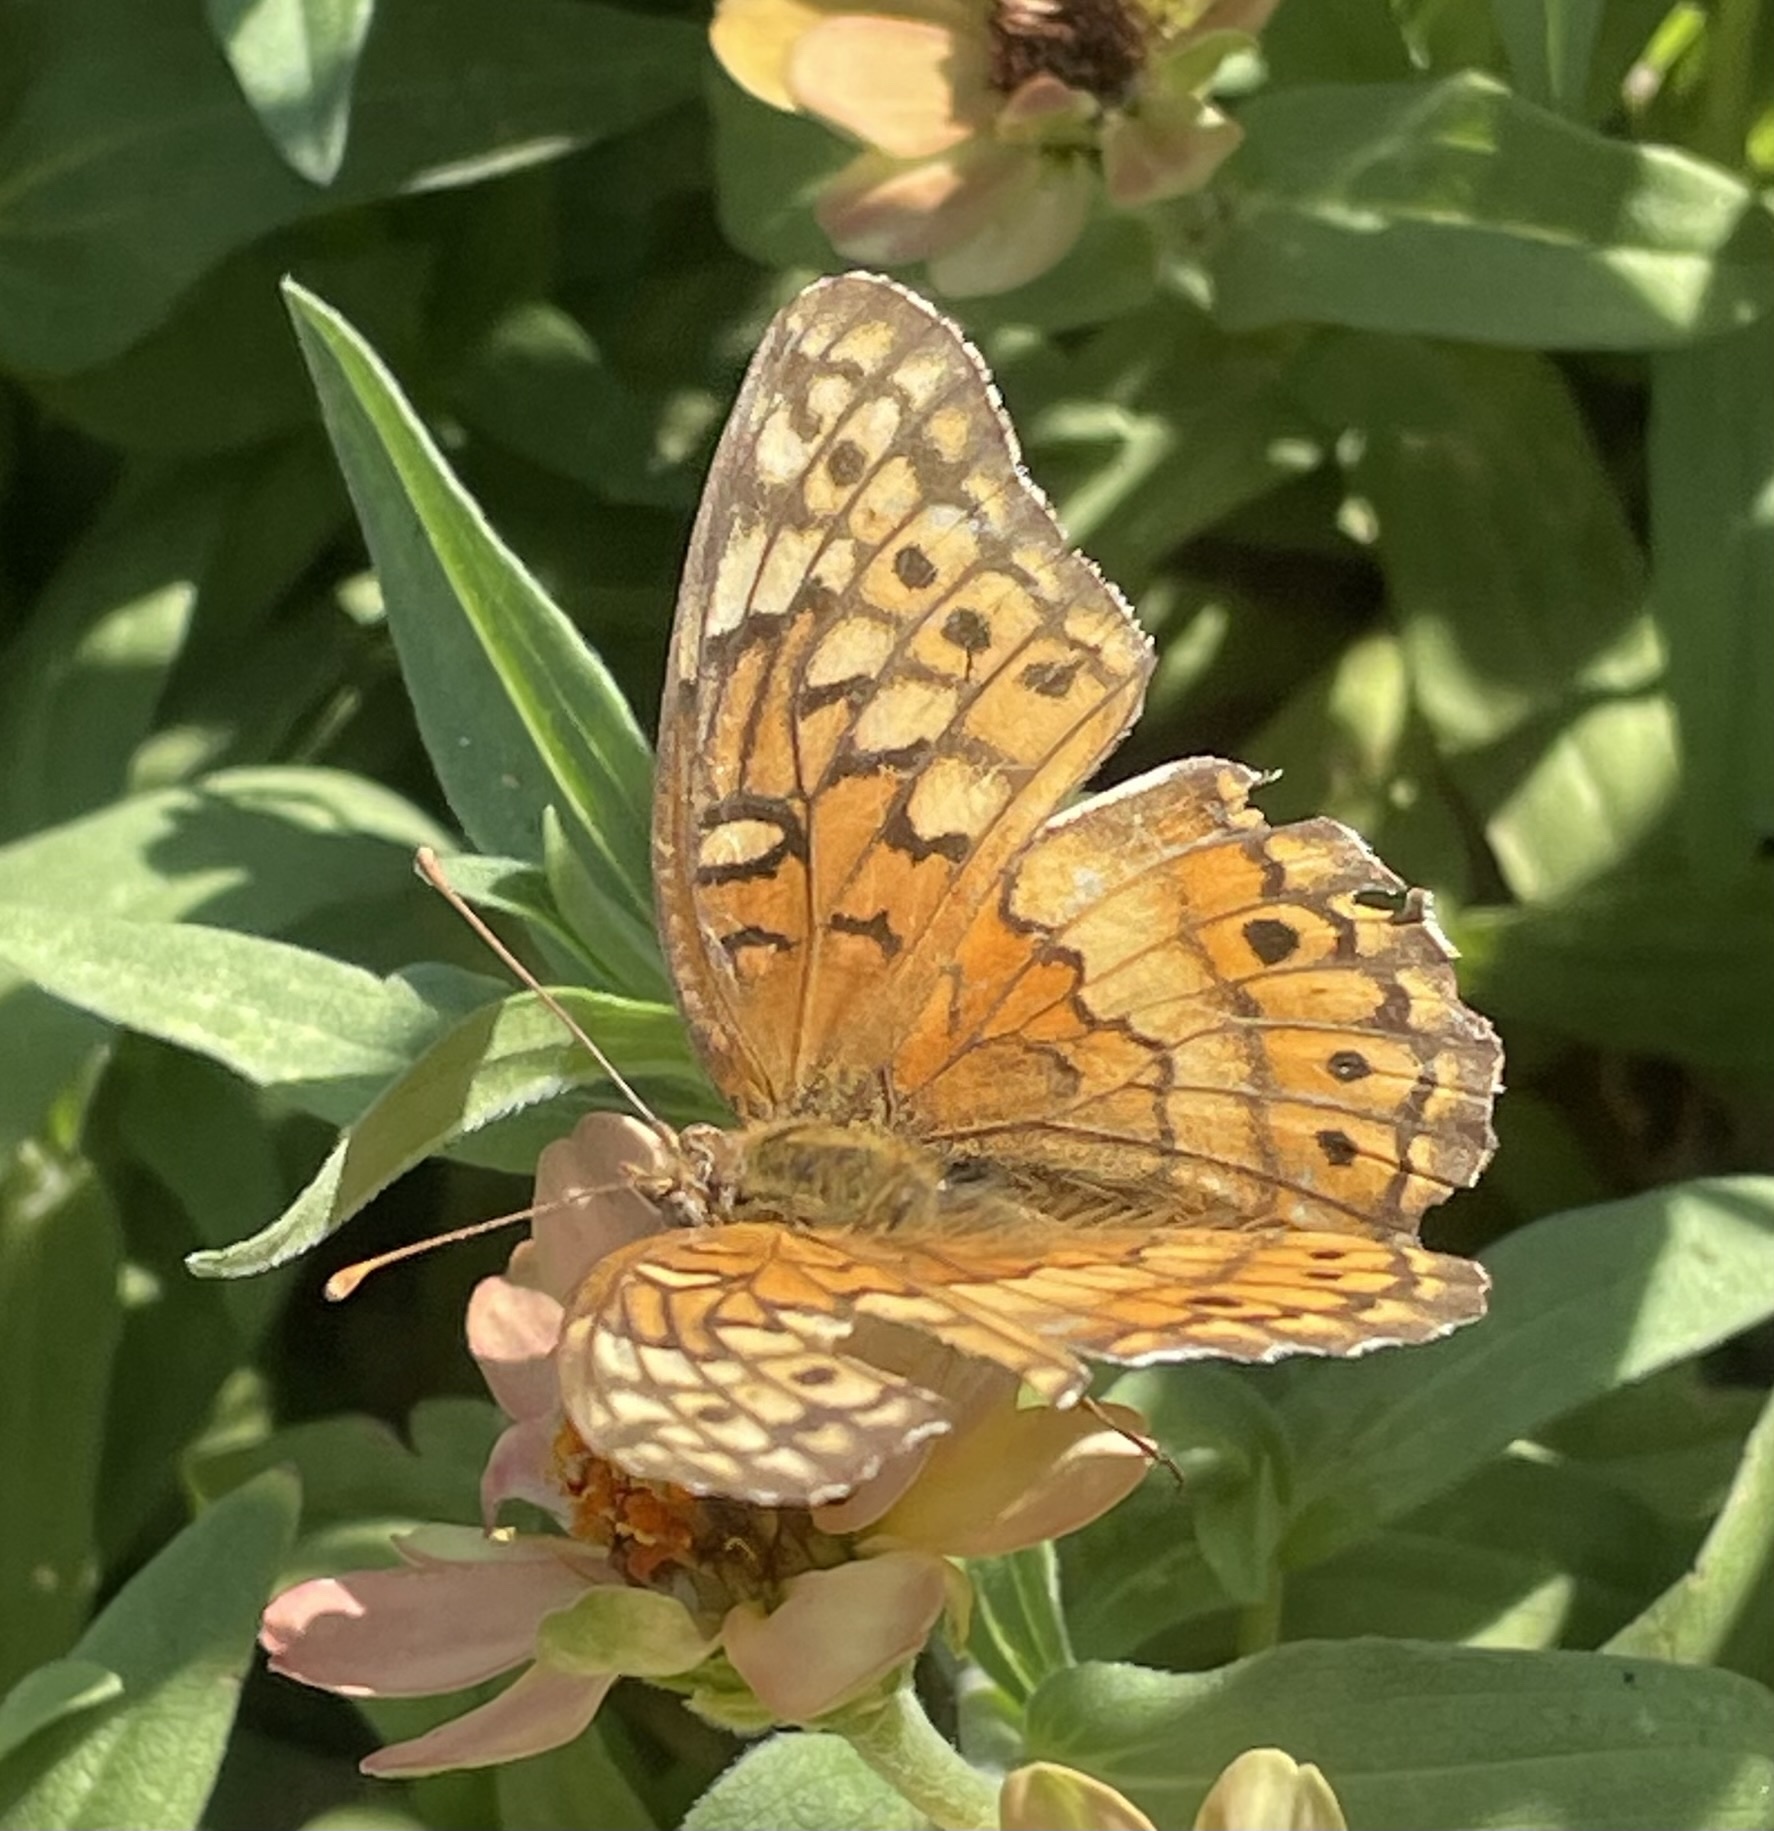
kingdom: Animalia
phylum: Arthropoda
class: Insecta
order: Lepidoptera
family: Nymphalidae
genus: Euptoieta
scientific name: Euptoieta claudia
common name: Variegated fritillary
